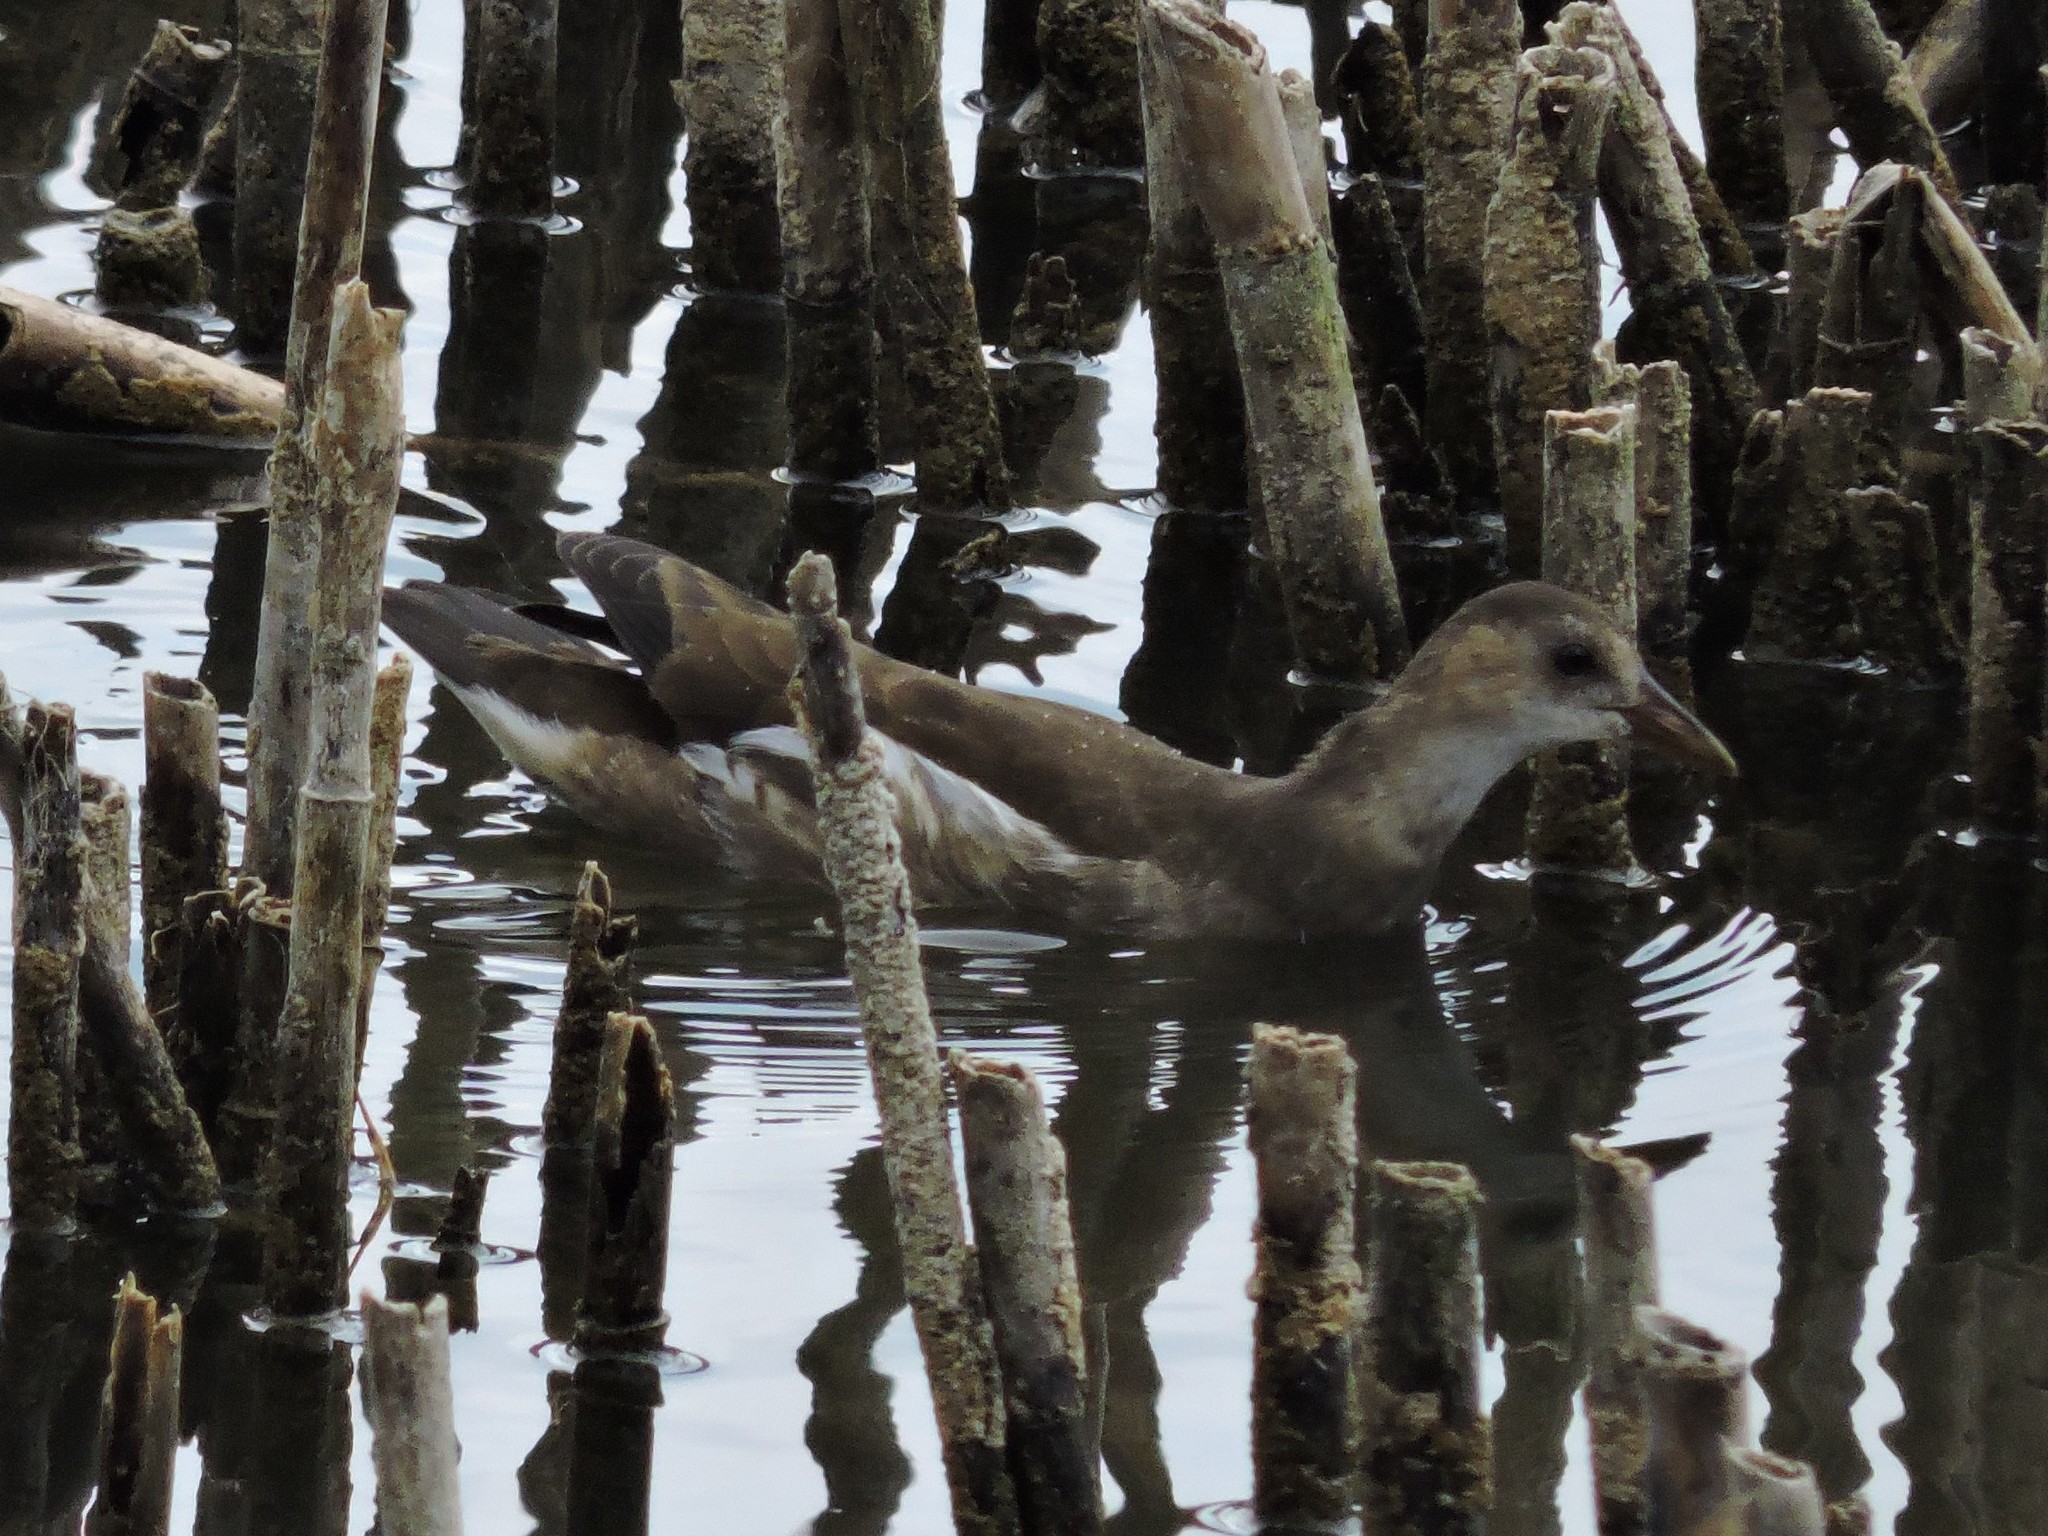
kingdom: Animalia
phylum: Chordata
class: Aves
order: Gruiformes
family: Rallidae
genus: Gallinula
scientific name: Gallinula chloropus
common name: Common moorhen
